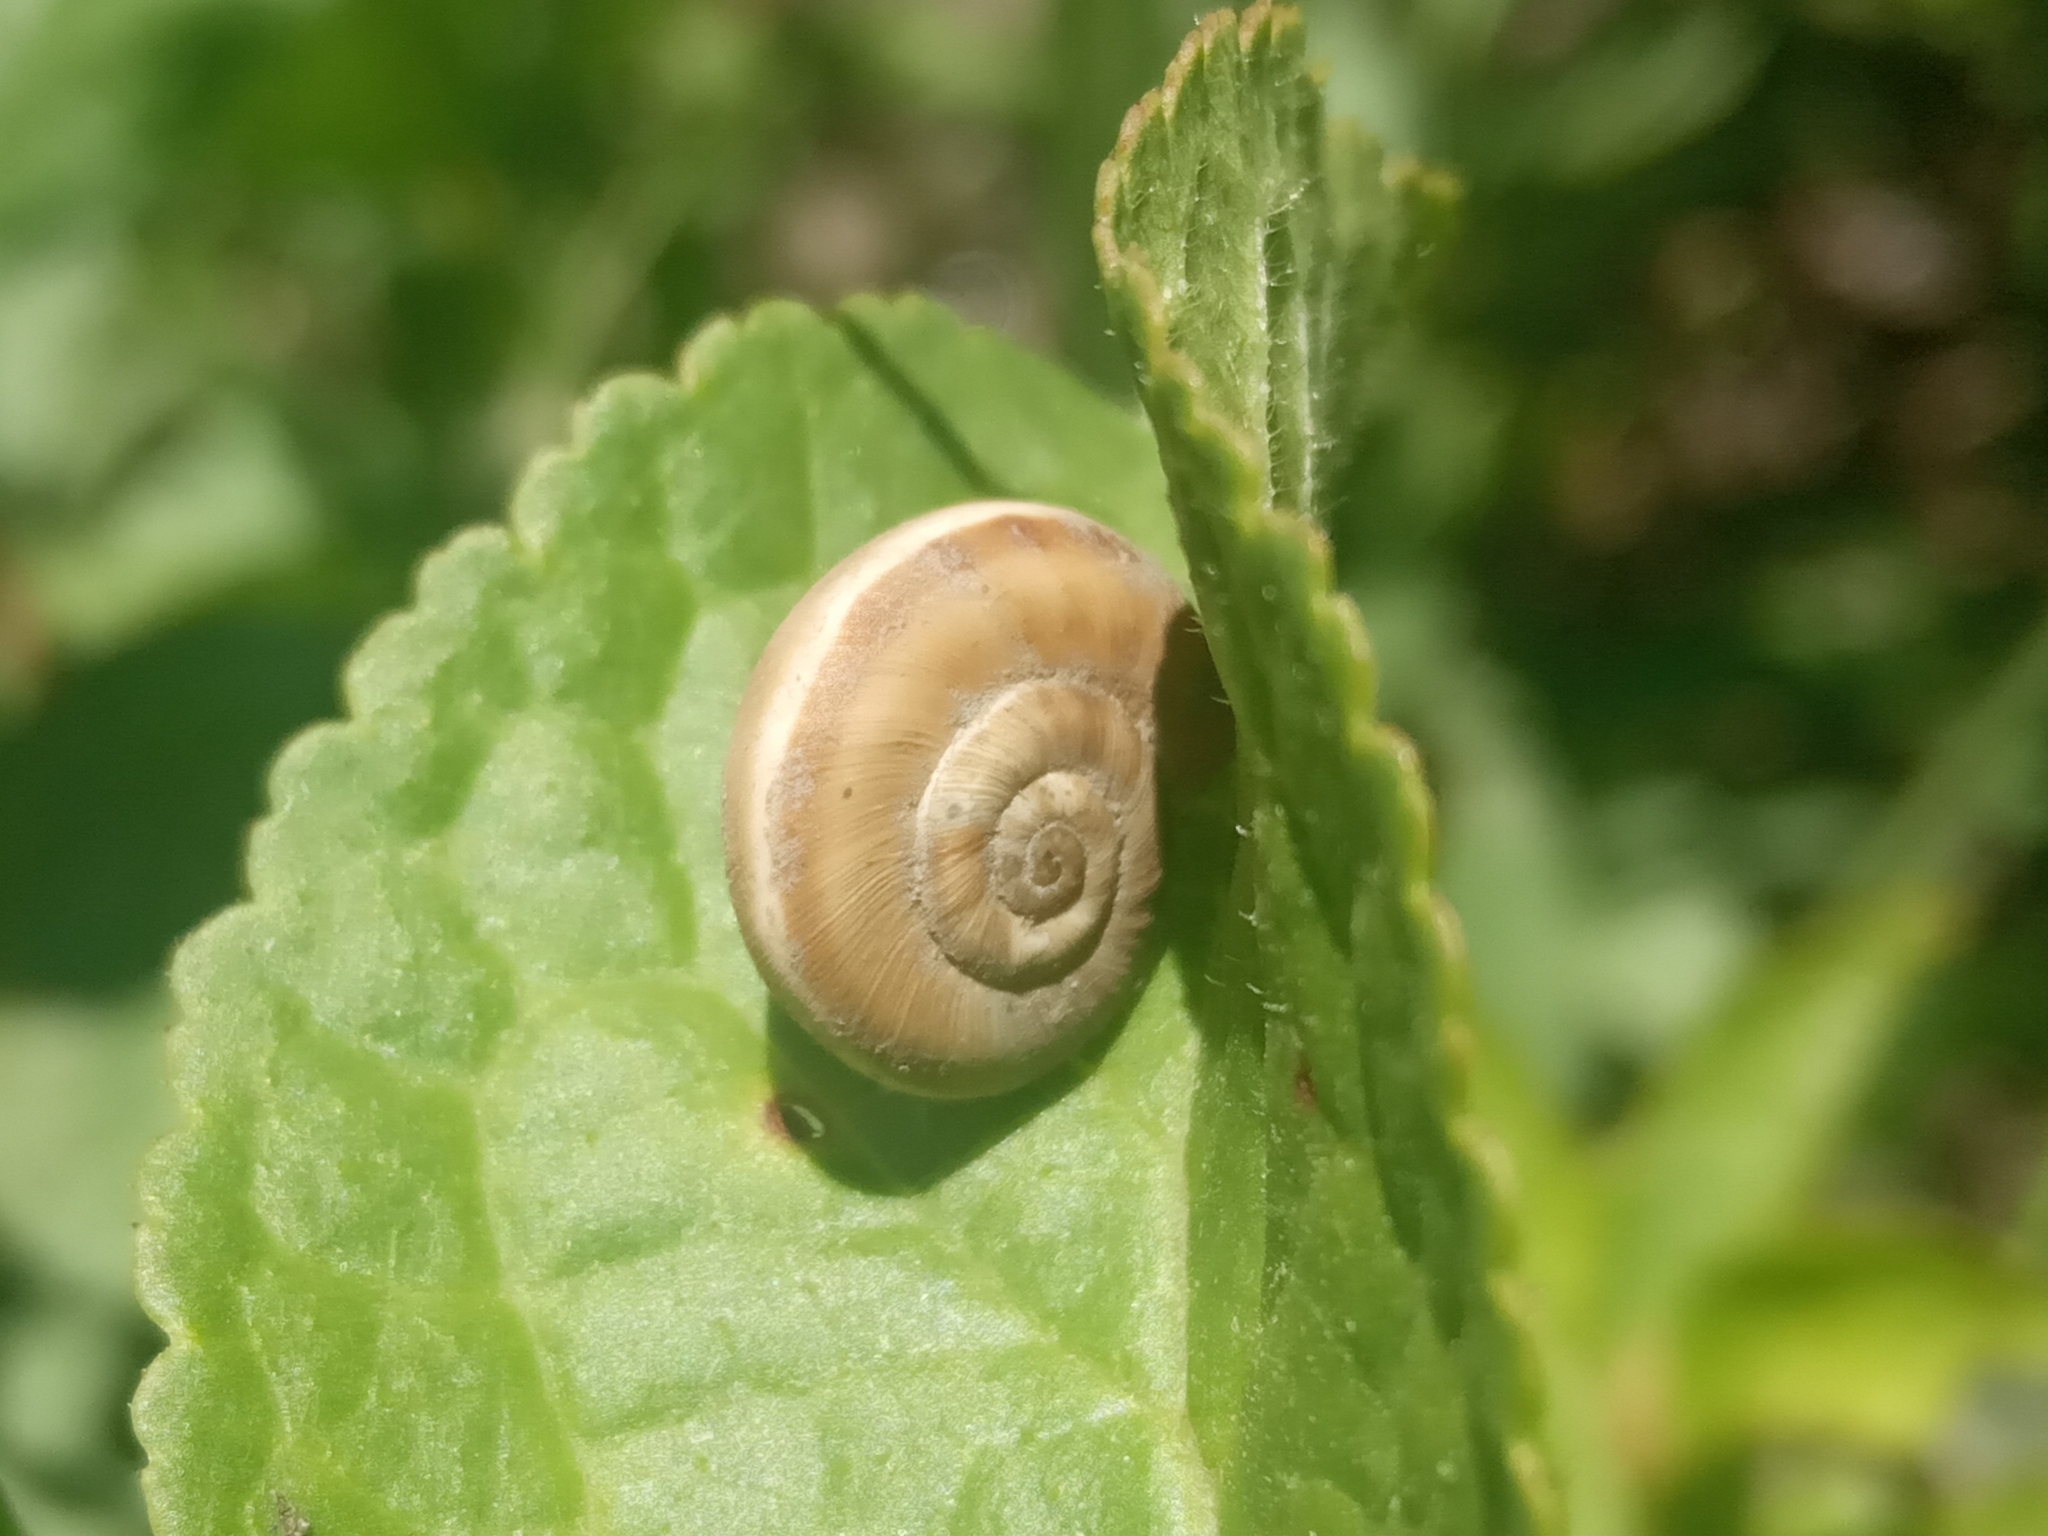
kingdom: Animalia
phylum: Mollusca
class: Gastropoda
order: Stylommatophora
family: Geomitridae
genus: Xeropicta
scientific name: Xeropicta derbentina
